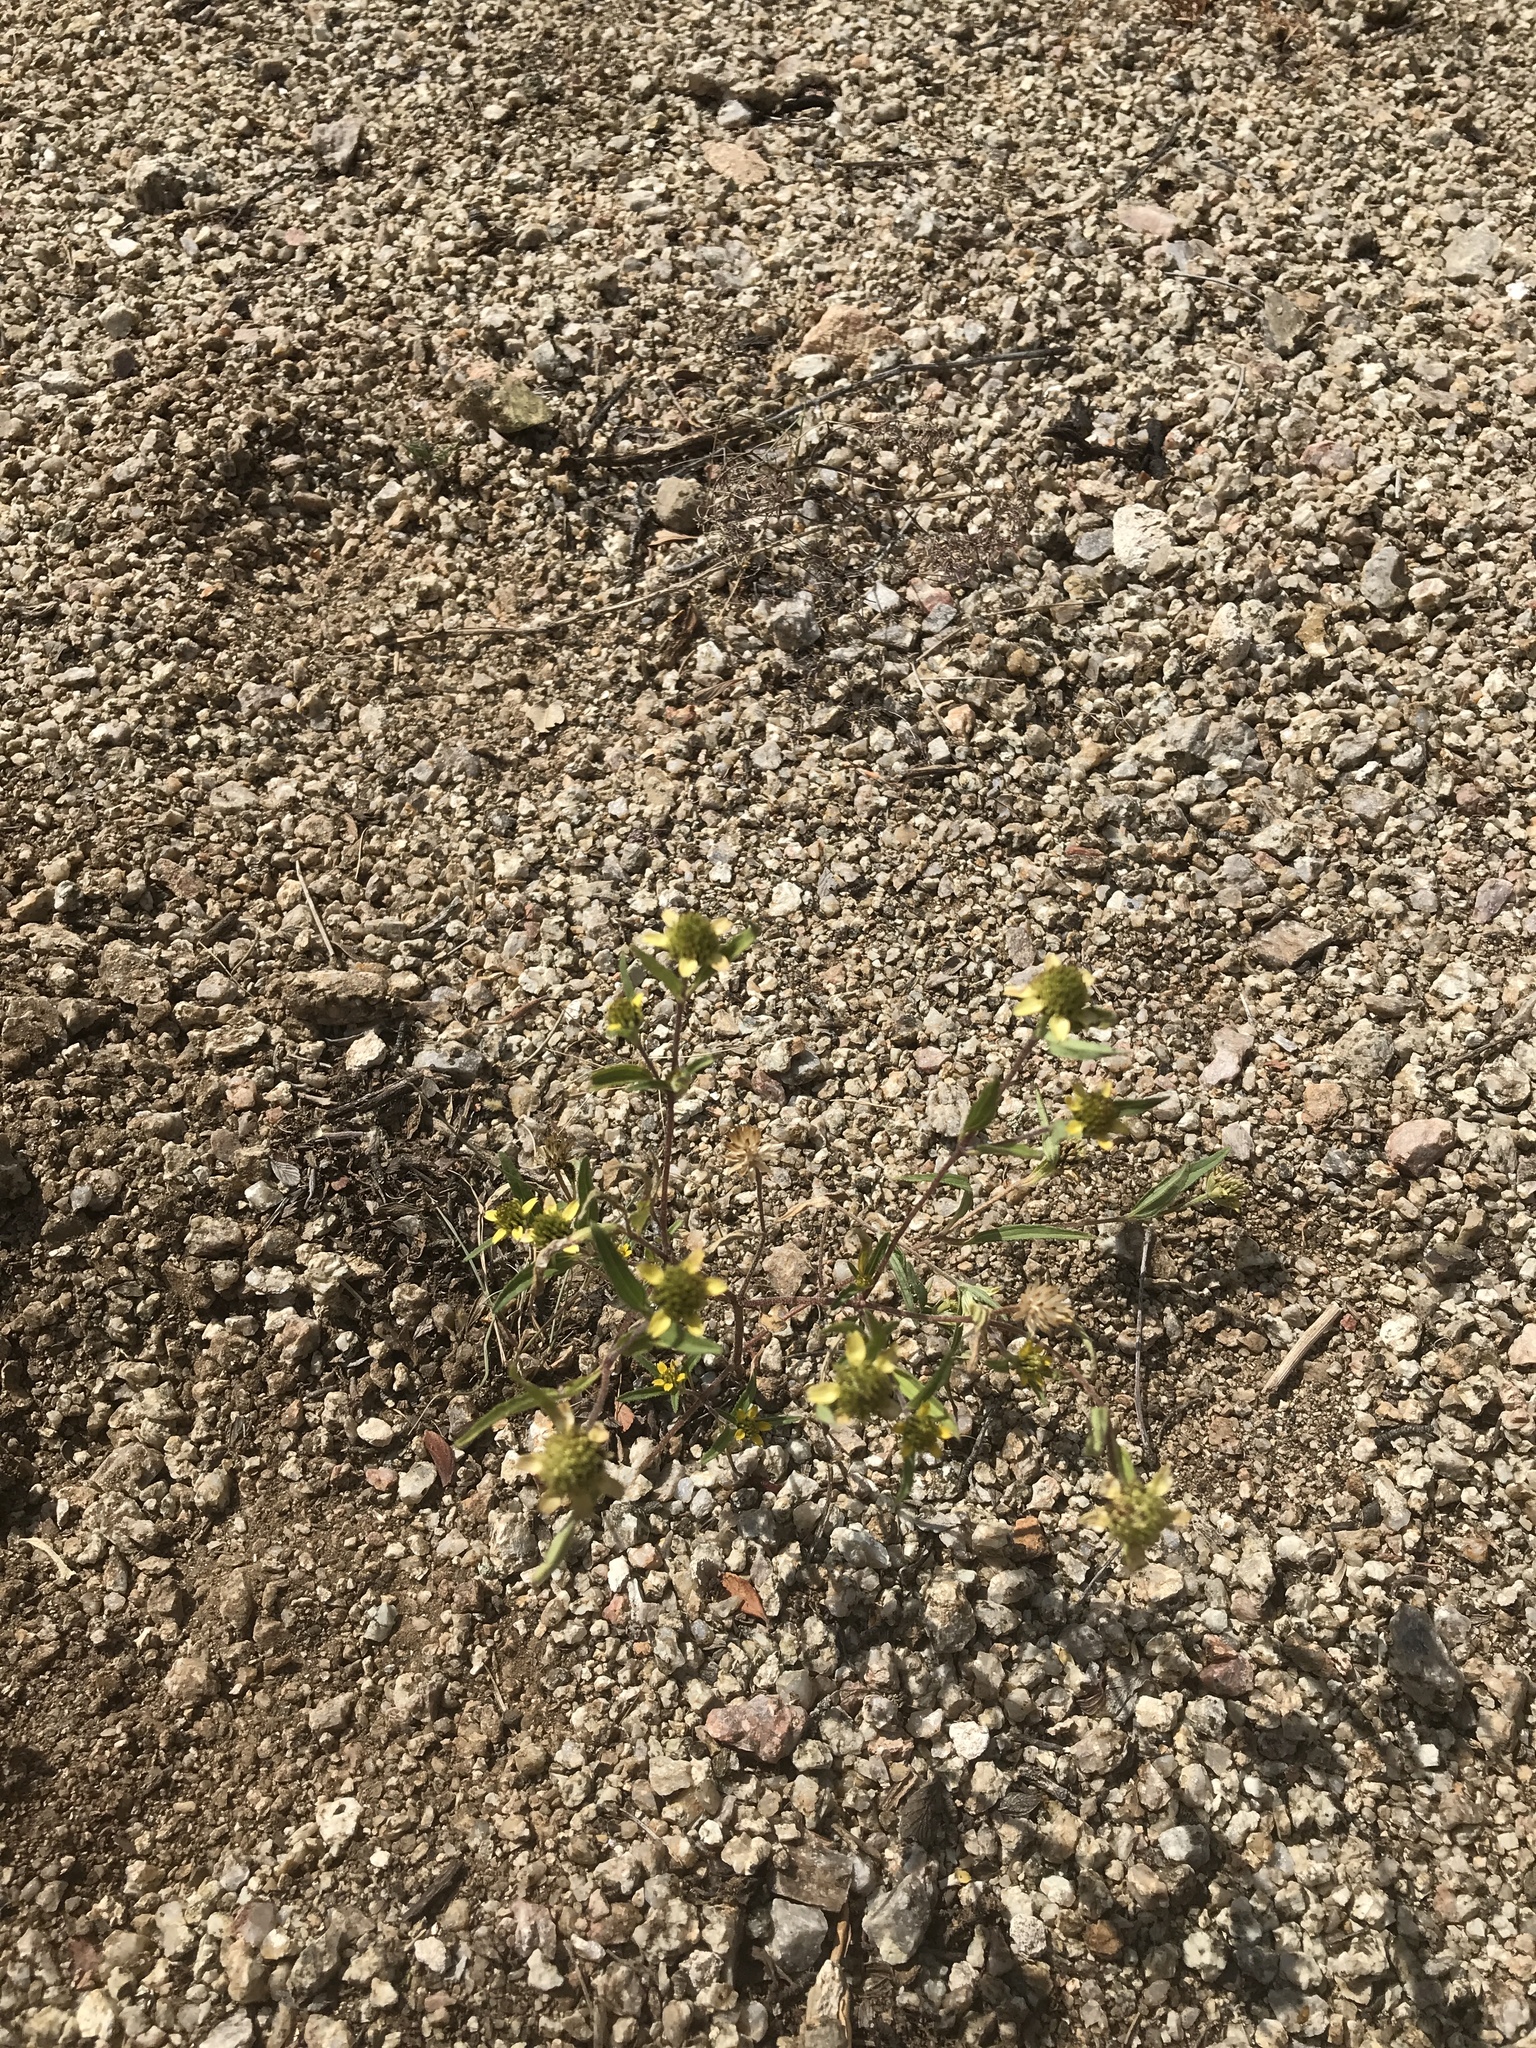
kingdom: Plantae
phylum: Tracheophyta
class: Magnoliopsida
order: Asterales
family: Asteraceae
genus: Sanvitalia
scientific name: Sanvitalia abertii
